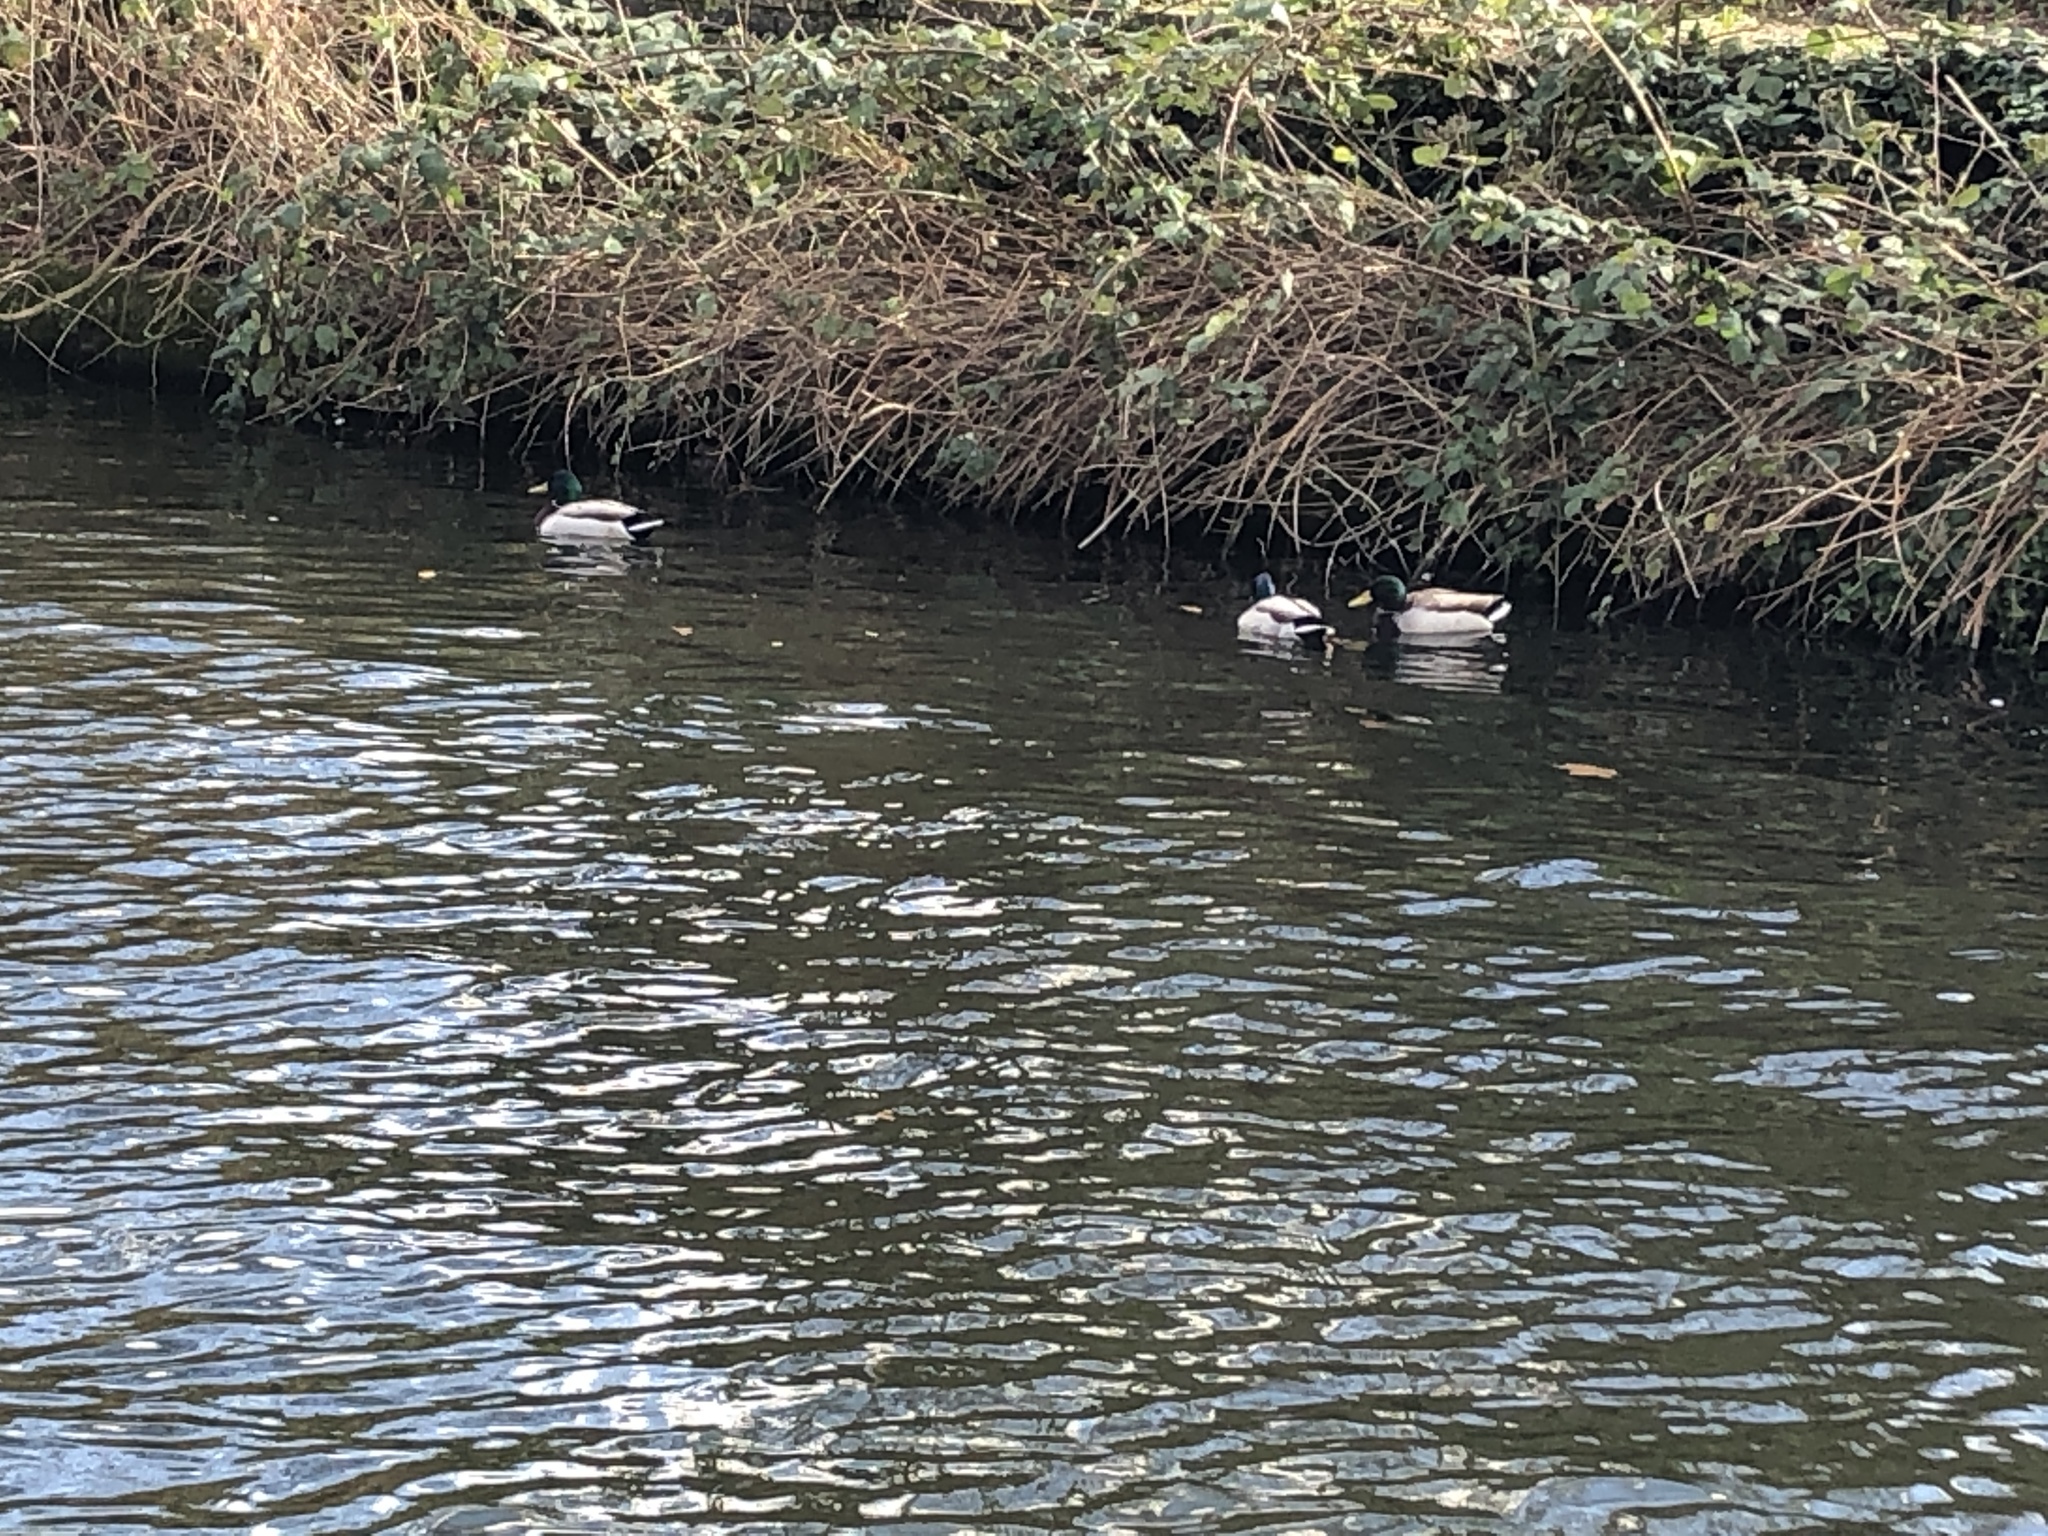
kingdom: Animalia
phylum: Chordata
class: Aves
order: Anseriformes
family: Anatidae
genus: Anas
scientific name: Anas platyrhynchos
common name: Mallard
